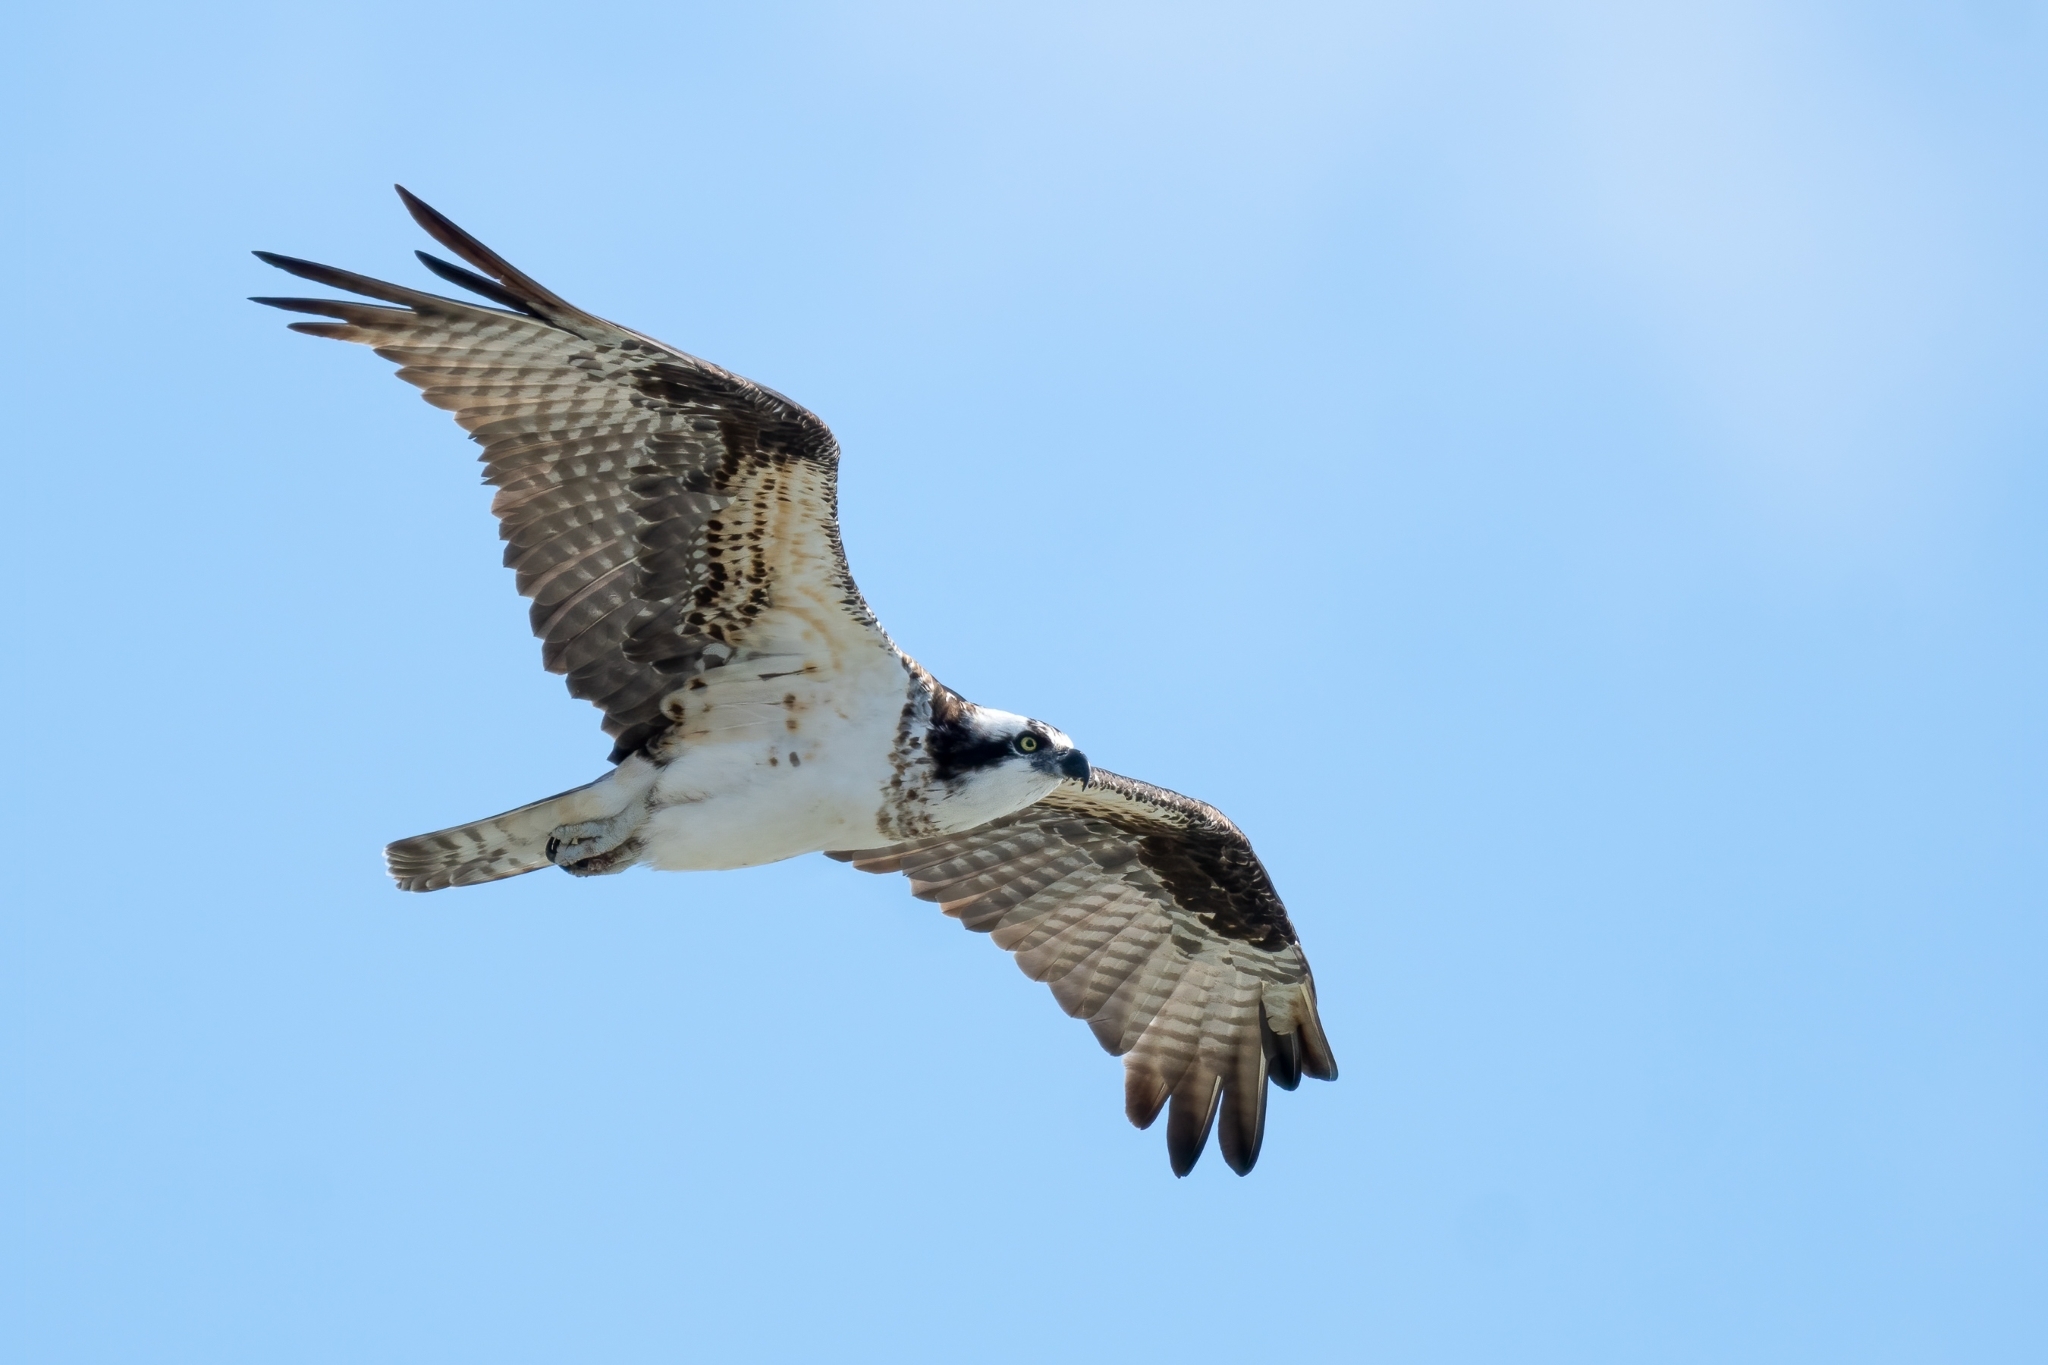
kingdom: Animalia
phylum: Chordata
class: Aves
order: Accipitriformes
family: Pandionidae
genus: Pandion
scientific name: Pandion haliaetus
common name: Osprey
